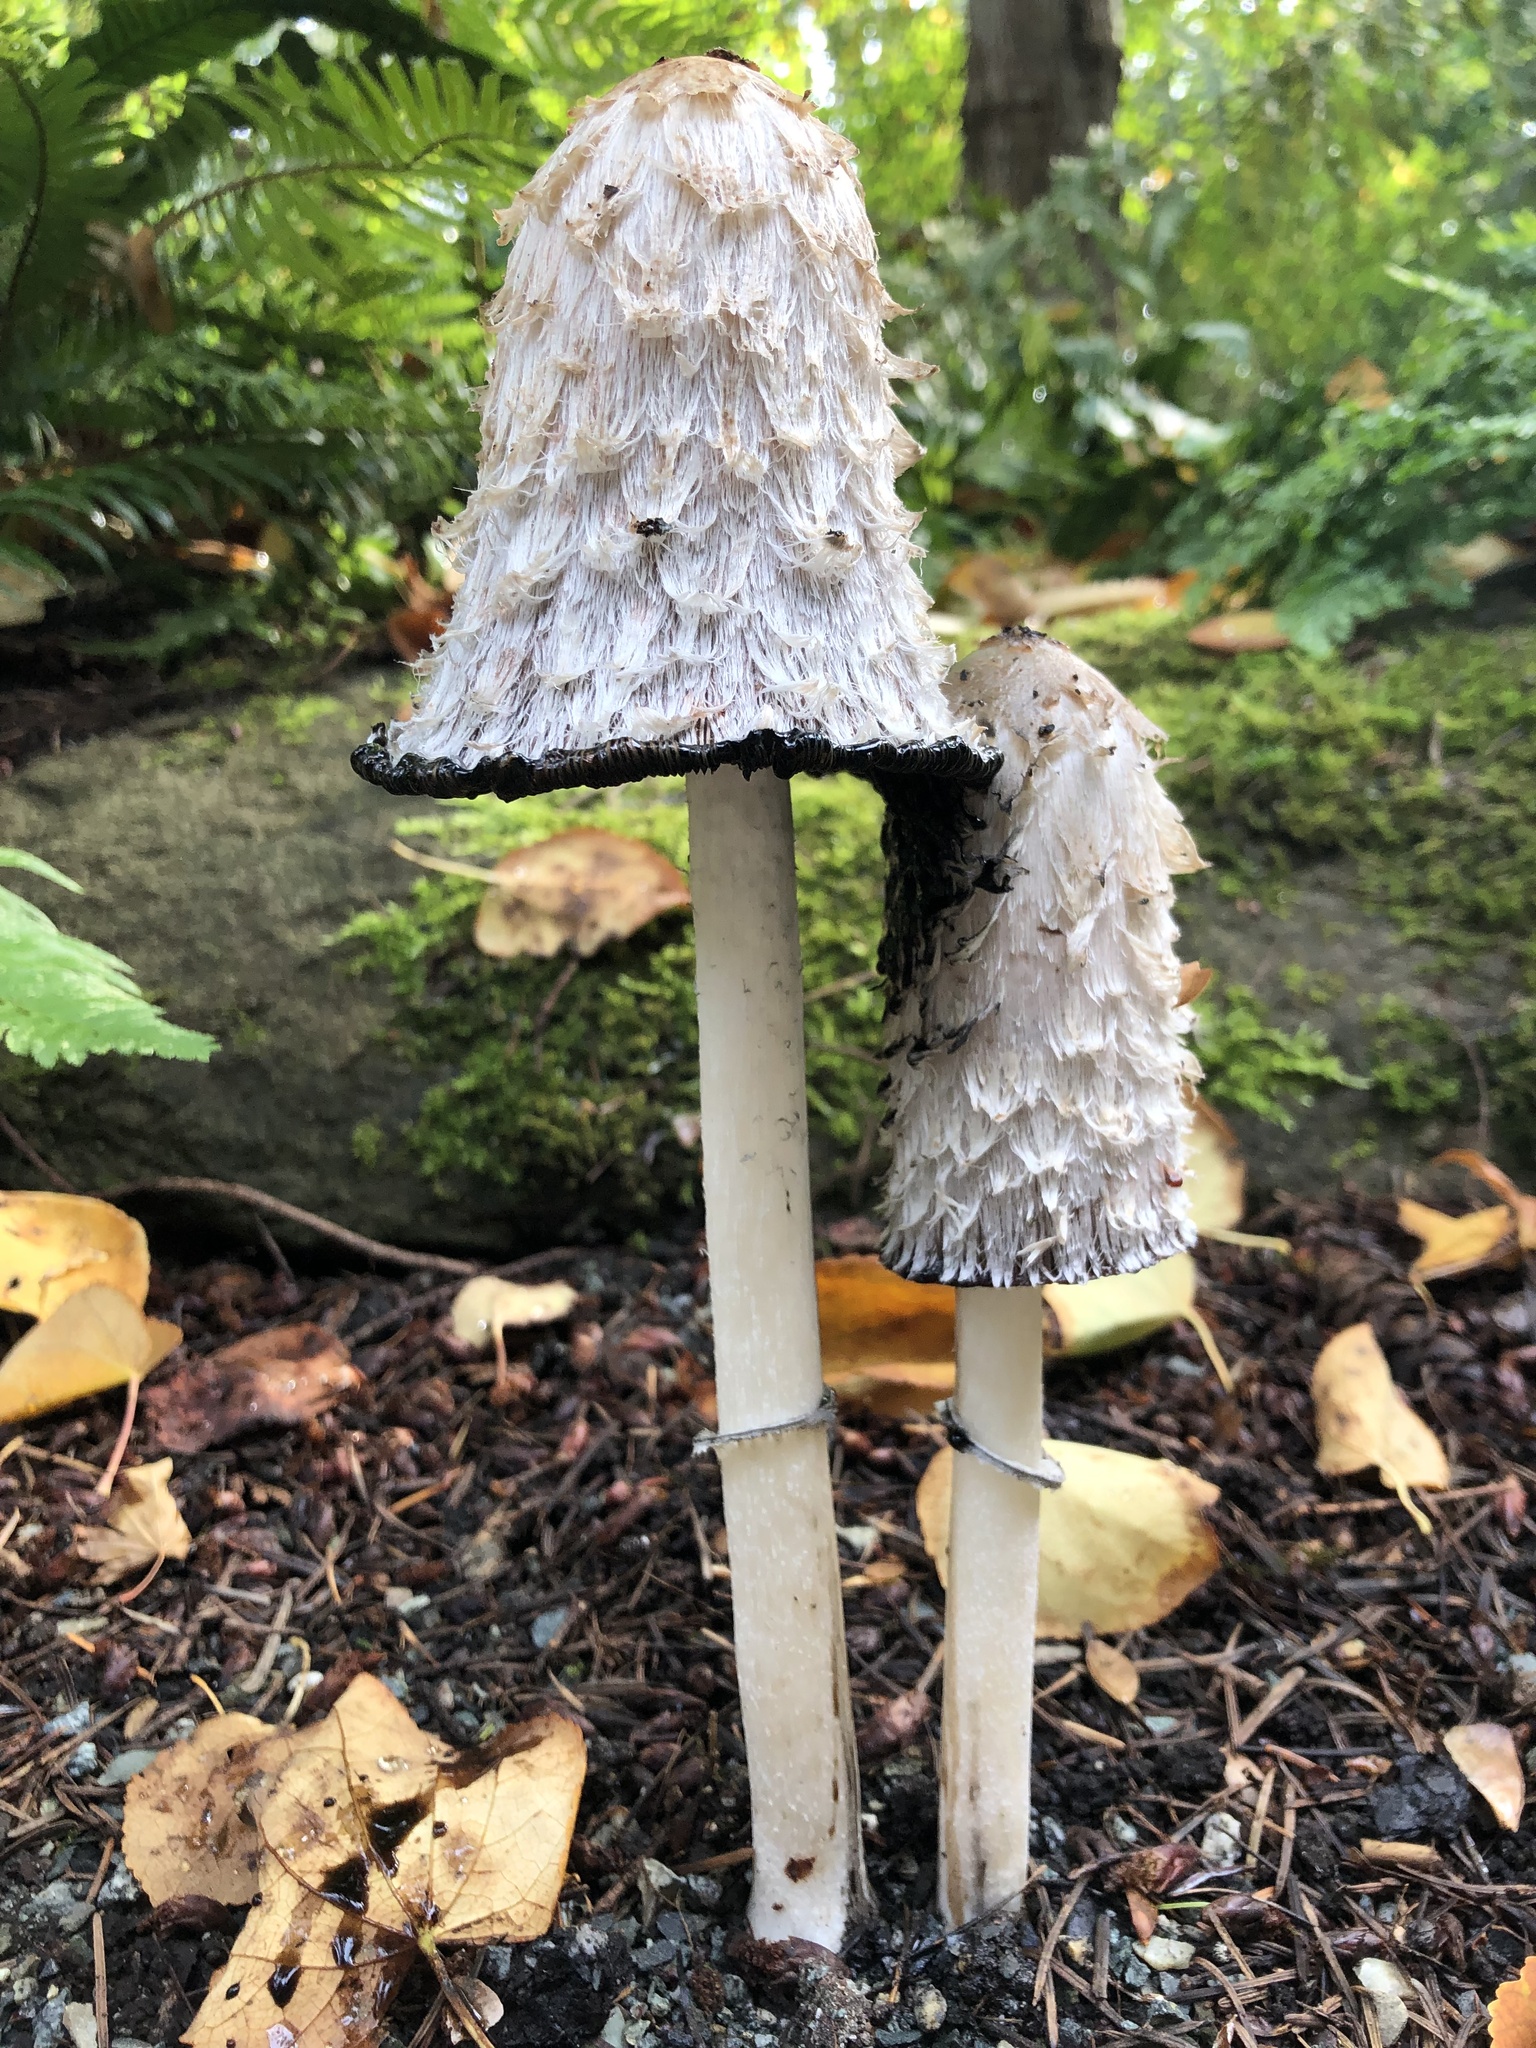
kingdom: Fungi
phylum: Basidiomycota
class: Agaricomycetes
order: Agaricales
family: Agaricaceae
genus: Coprinus
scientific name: Coprinus comatus
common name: Lawyer's wig
